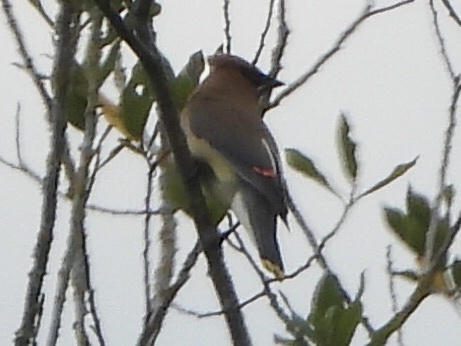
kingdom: Animalia
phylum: Chordata
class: Aves
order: Passeriformes
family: Bombycillidae
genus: Bombycilla
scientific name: Bombycilla cedrorum
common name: Cedar waxwing
